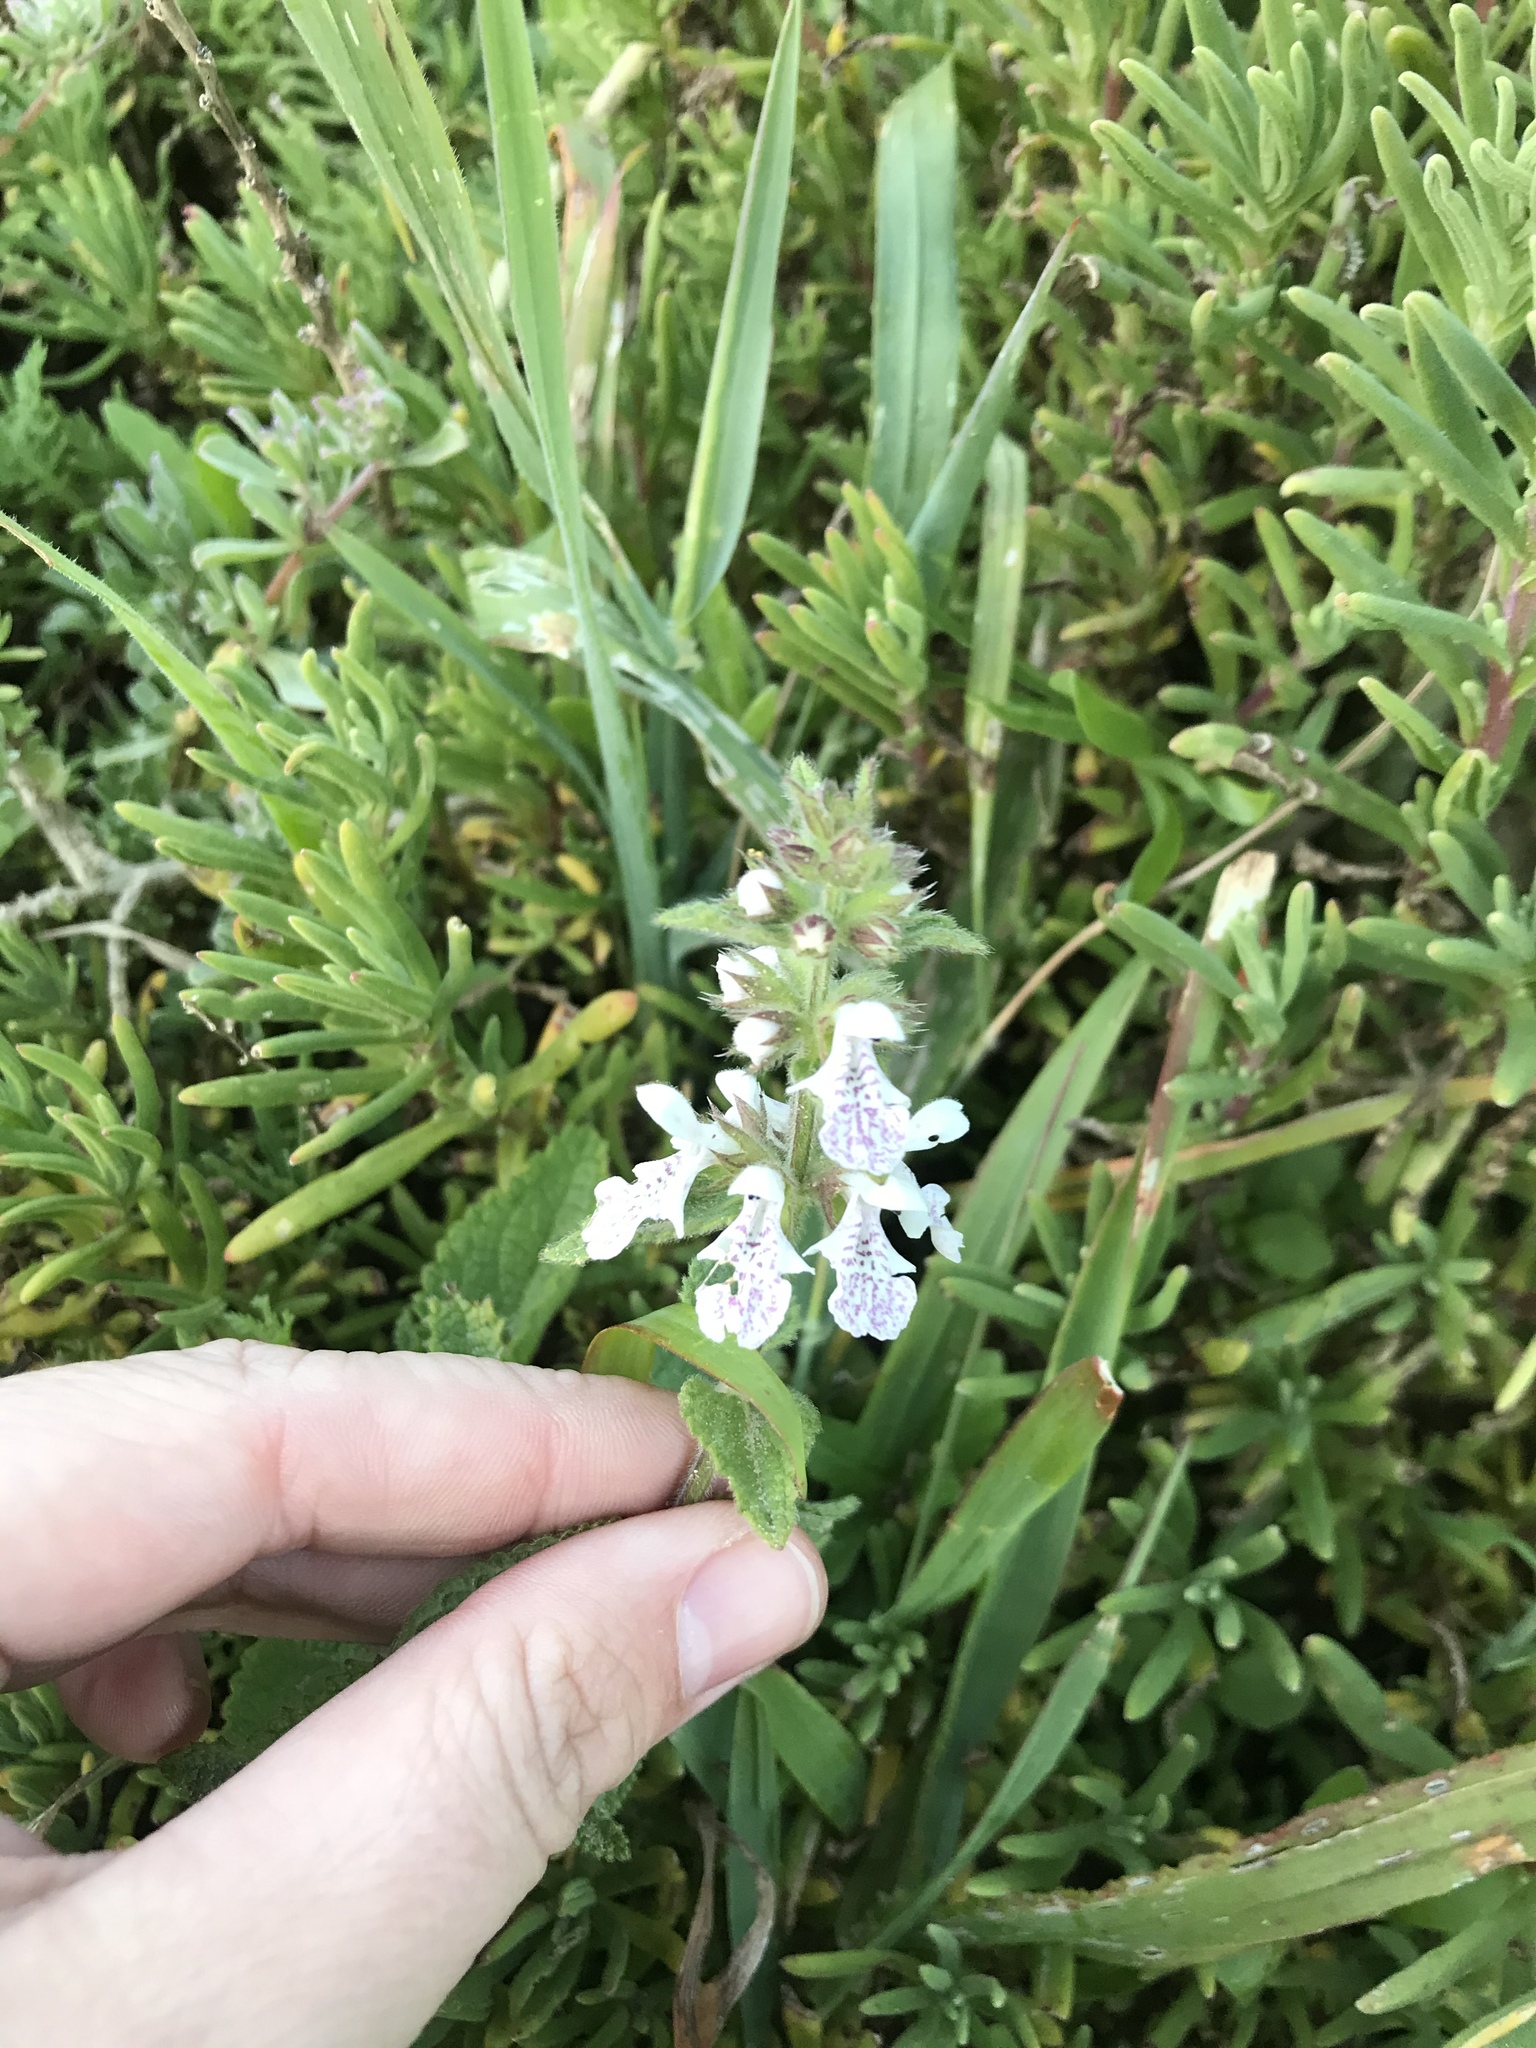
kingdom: Plantae
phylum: Tracheophyta
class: Magnoliopsida
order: Lamiales
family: Lamiaceae
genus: Stachys
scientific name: Stachys bolusii
